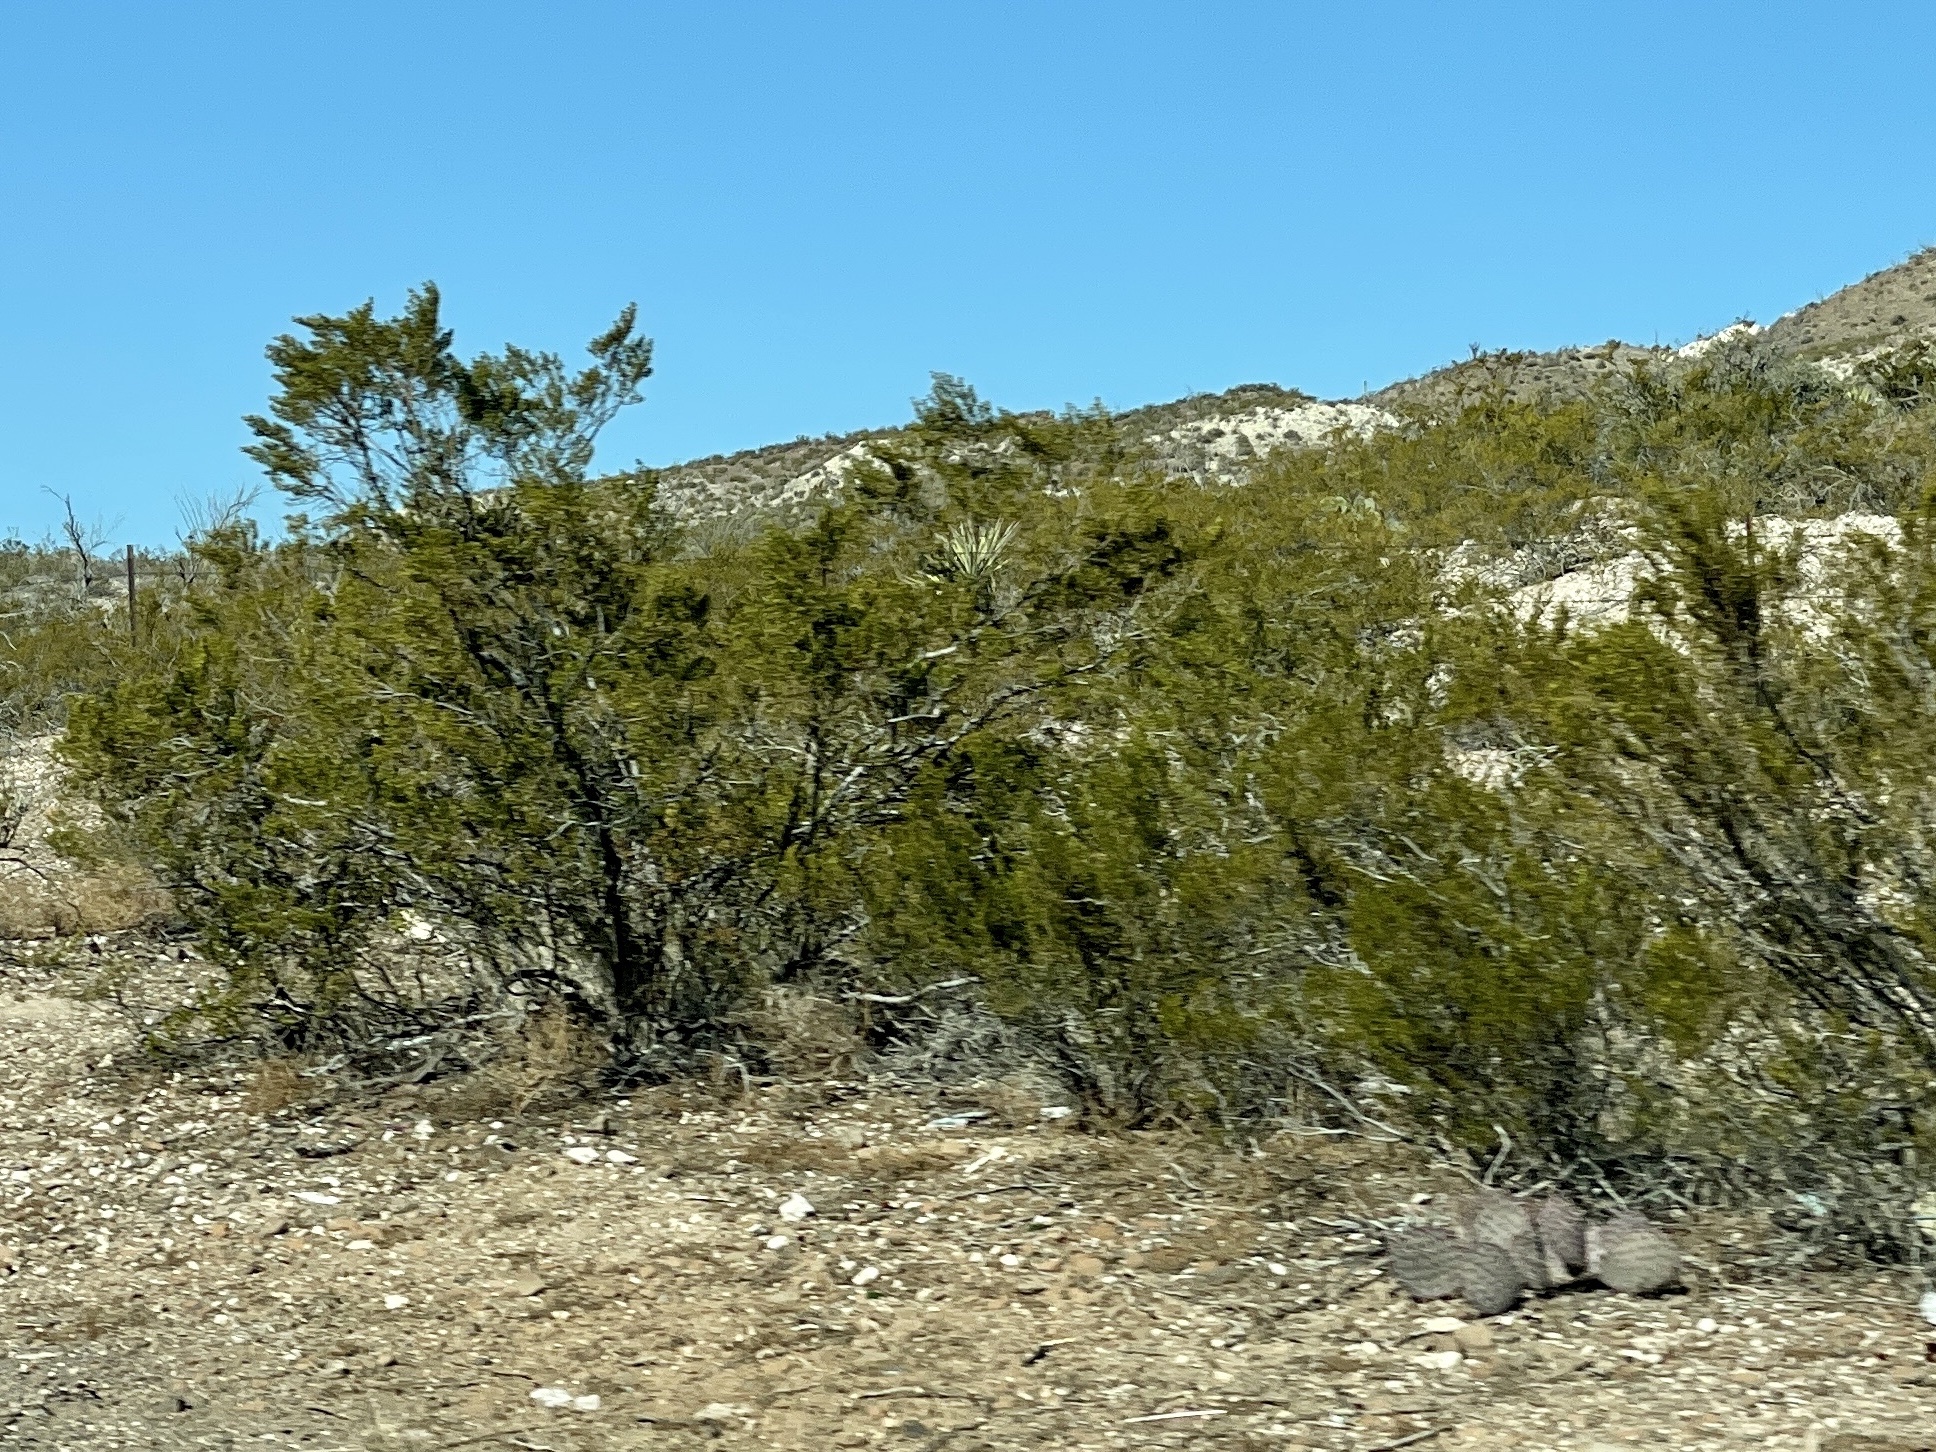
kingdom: Plantae
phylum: Tracheophyta
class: Magnoliopsida
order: Zygophyllales
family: Zygophyllaceae
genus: Larrea
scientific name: Larrea tridentata
